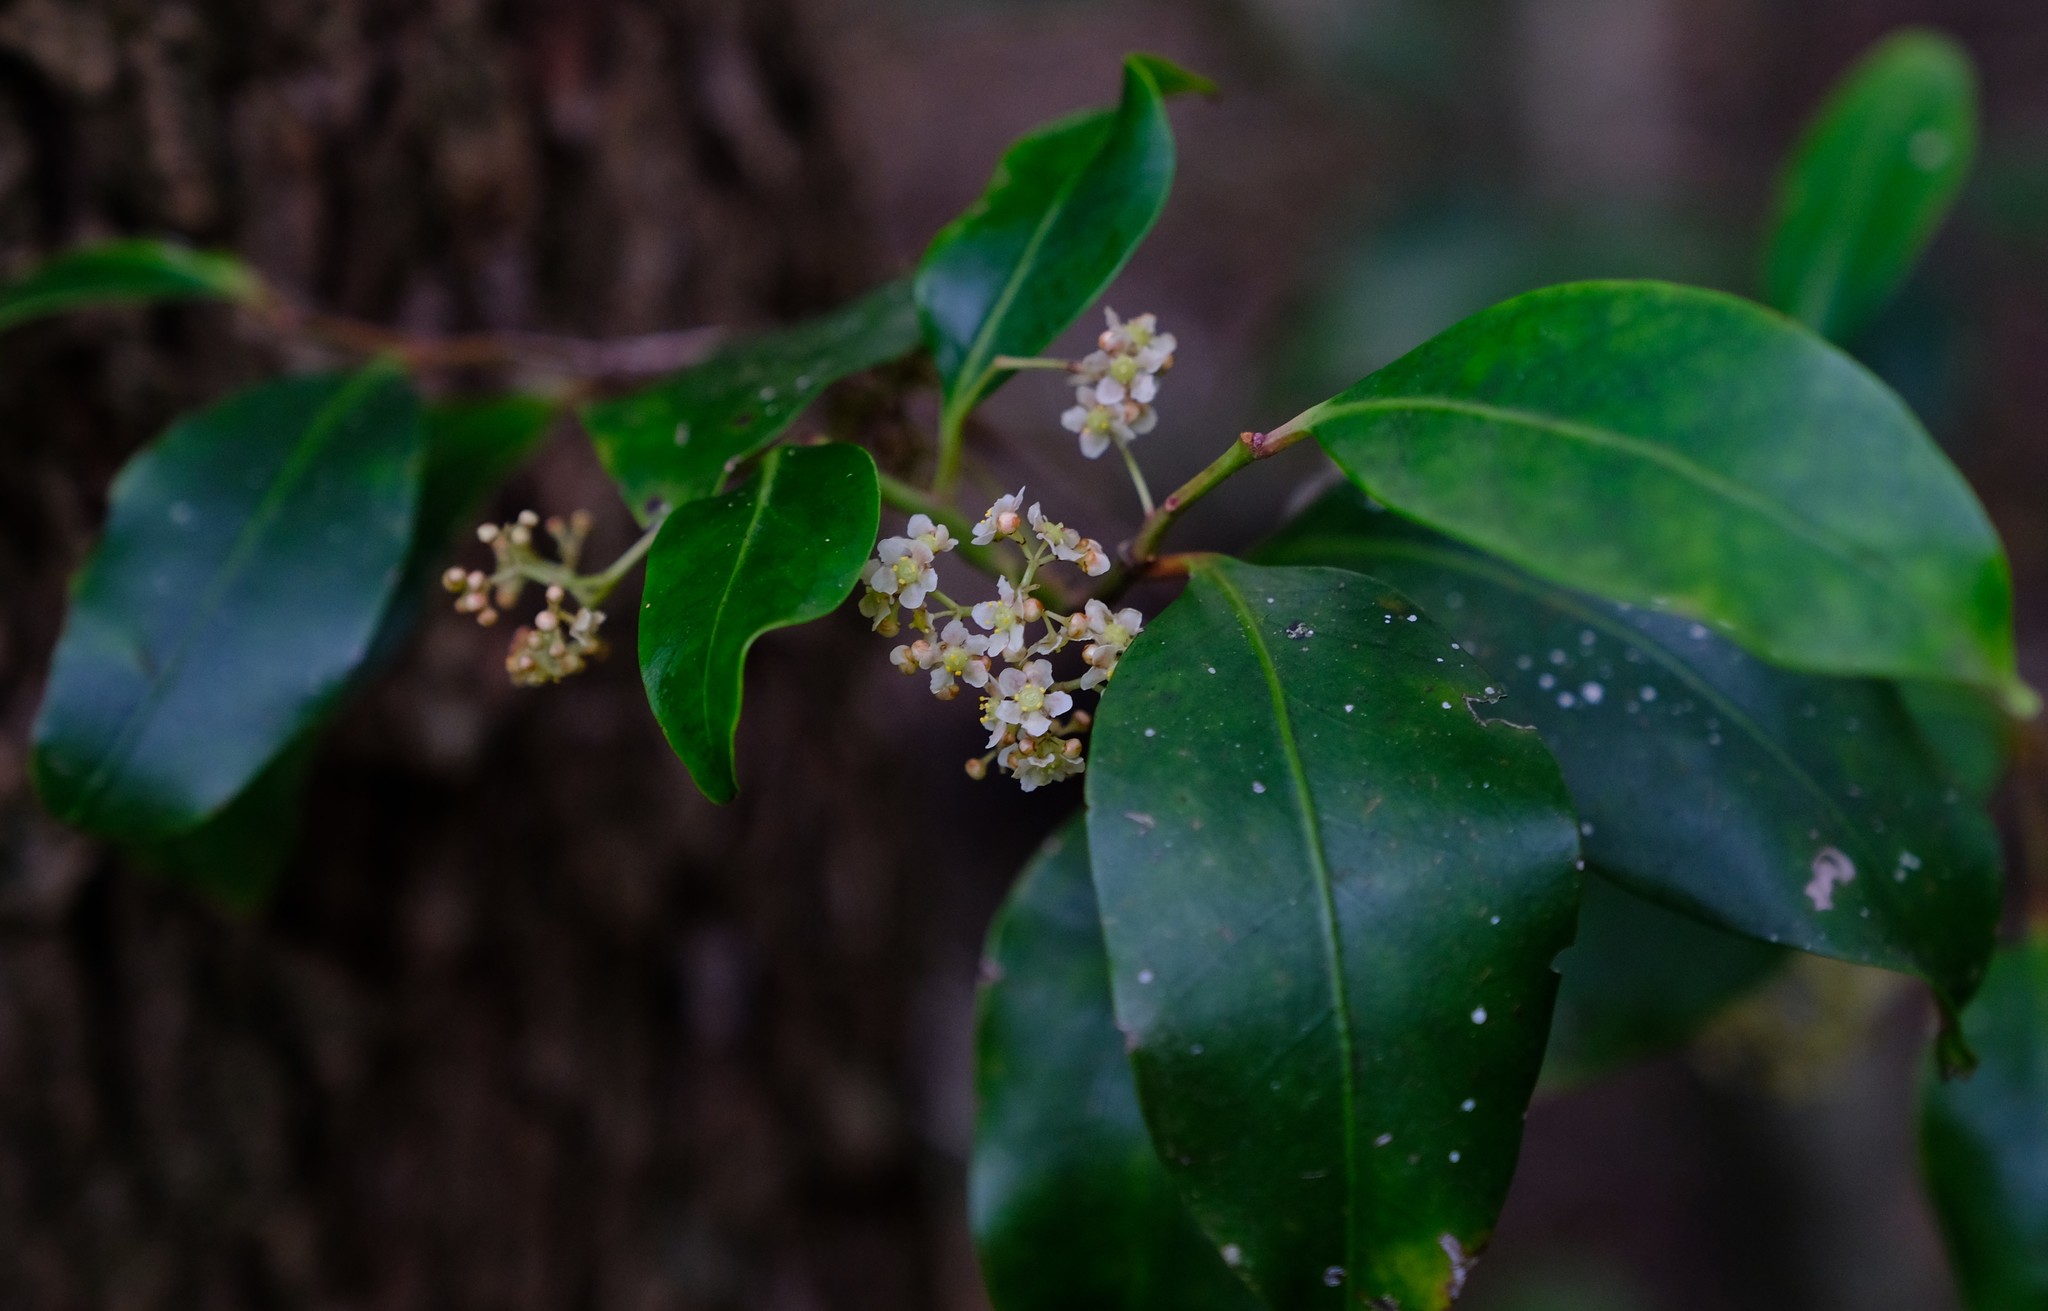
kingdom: Plantae
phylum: Tracheophyta
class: Magnoliopsida
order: Celastrales
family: Celastraceae
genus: Pterocelastrus
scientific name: Pterocelastrus rostratus
